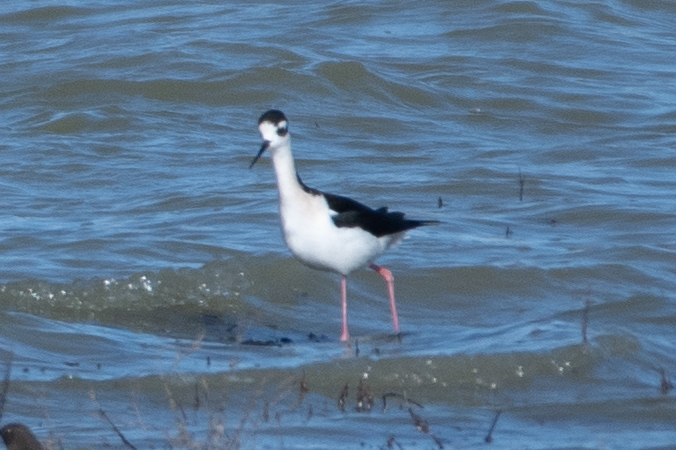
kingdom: Animalia
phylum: Chordata
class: Aves
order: Charadriiformes
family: Recurvirostridae
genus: Himantopus
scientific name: Himantopus mexicanus
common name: Black-necked stilt
